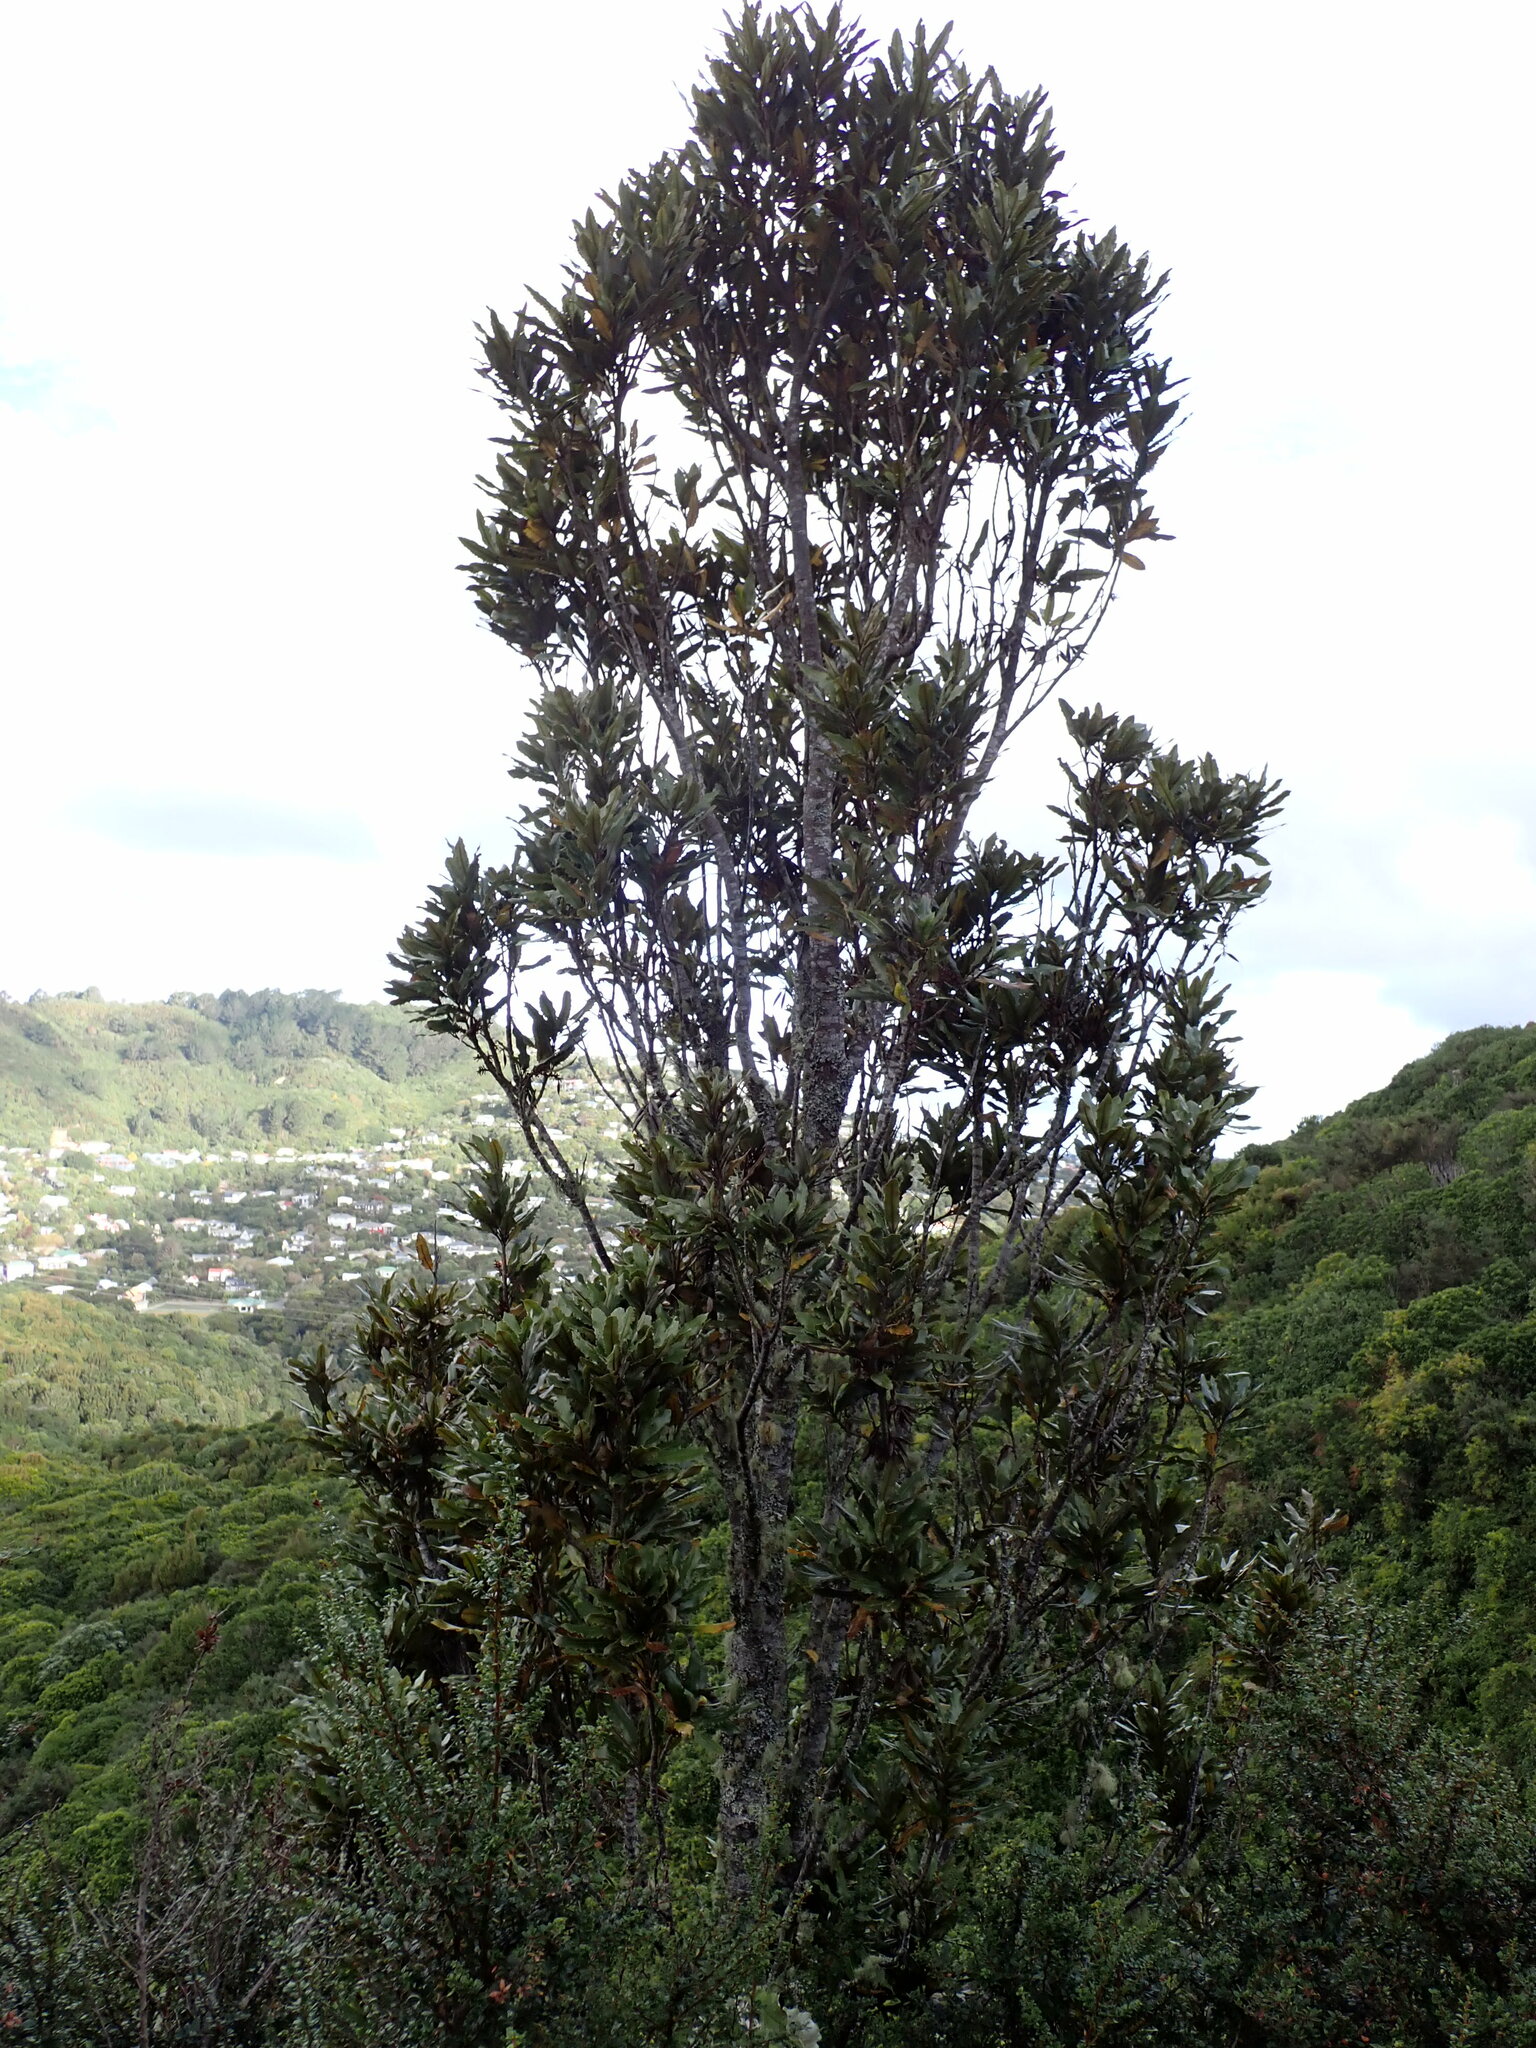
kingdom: Plantae
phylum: Tracheophyta
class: Magnoliopsida
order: Proteales
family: Proteaceae
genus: Knightia
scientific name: Knightia excelsa
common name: New zealand-honeysuckle
